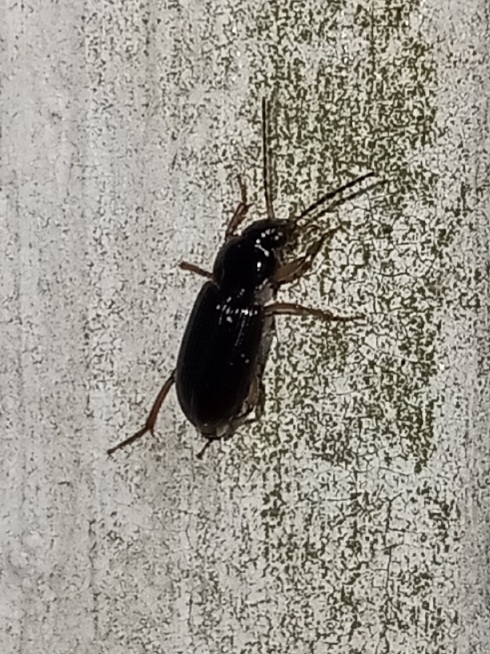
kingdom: Animalia
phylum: Arthropoda
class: Insecta
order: Coleoptera
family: Carabidae
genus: Stenolophus
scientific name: Stenolophus ochropezus
